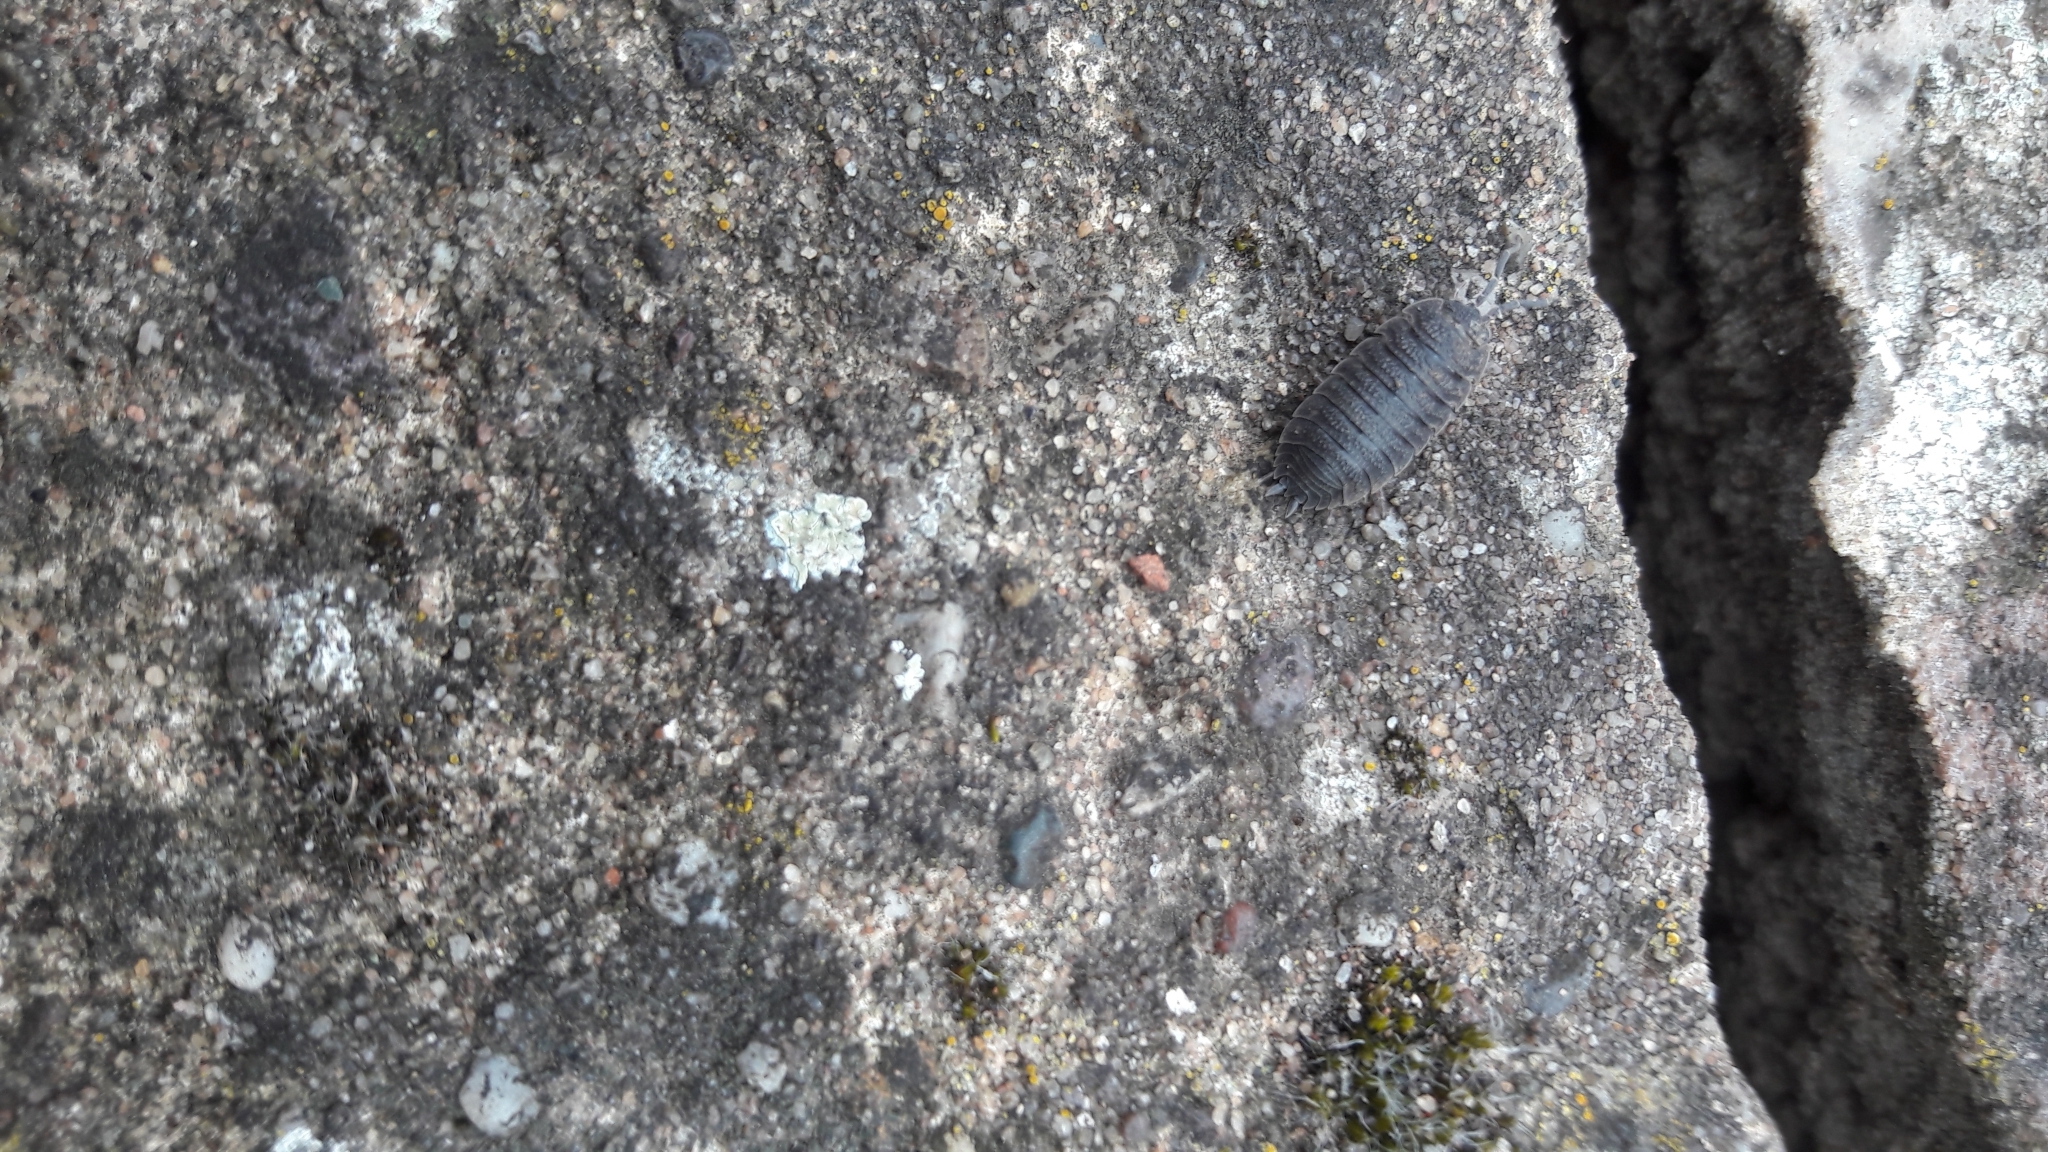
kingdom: Animalia
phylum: Arthropoda
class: Malacostraca
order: Isopoda
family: Porcellionidae
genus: Porcellio
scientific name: Porcellio scaber
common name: Common rough woodlouse
